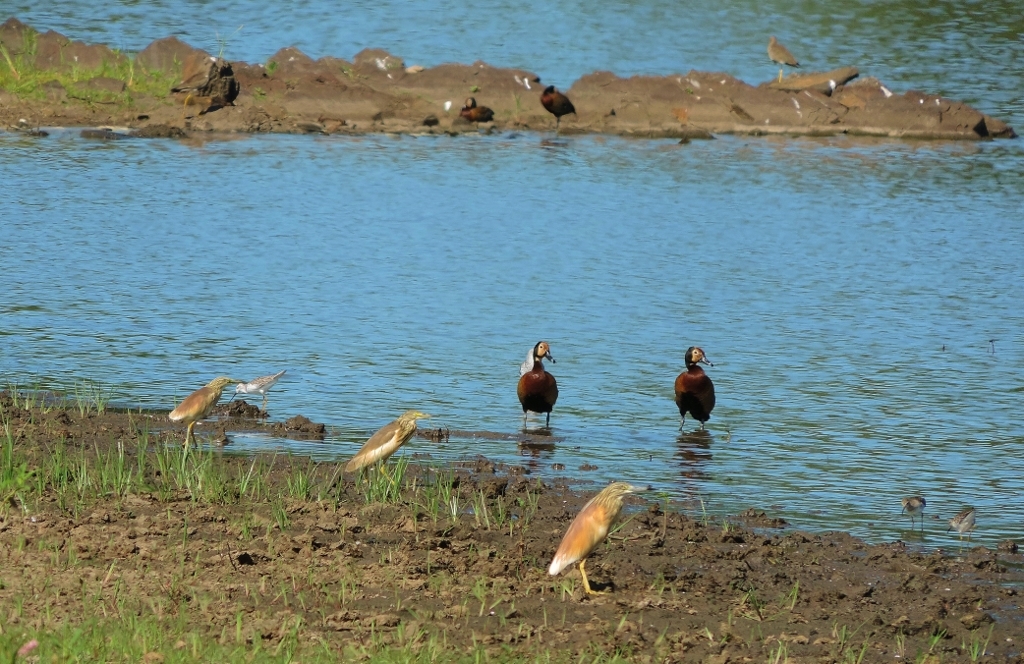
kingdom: Animalia
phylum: Chordata
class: Aves
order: Anseriformes
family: Anatidae
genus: Dendrocygna
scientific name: Dendrocygna viduata
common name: White-faced whistling duck
